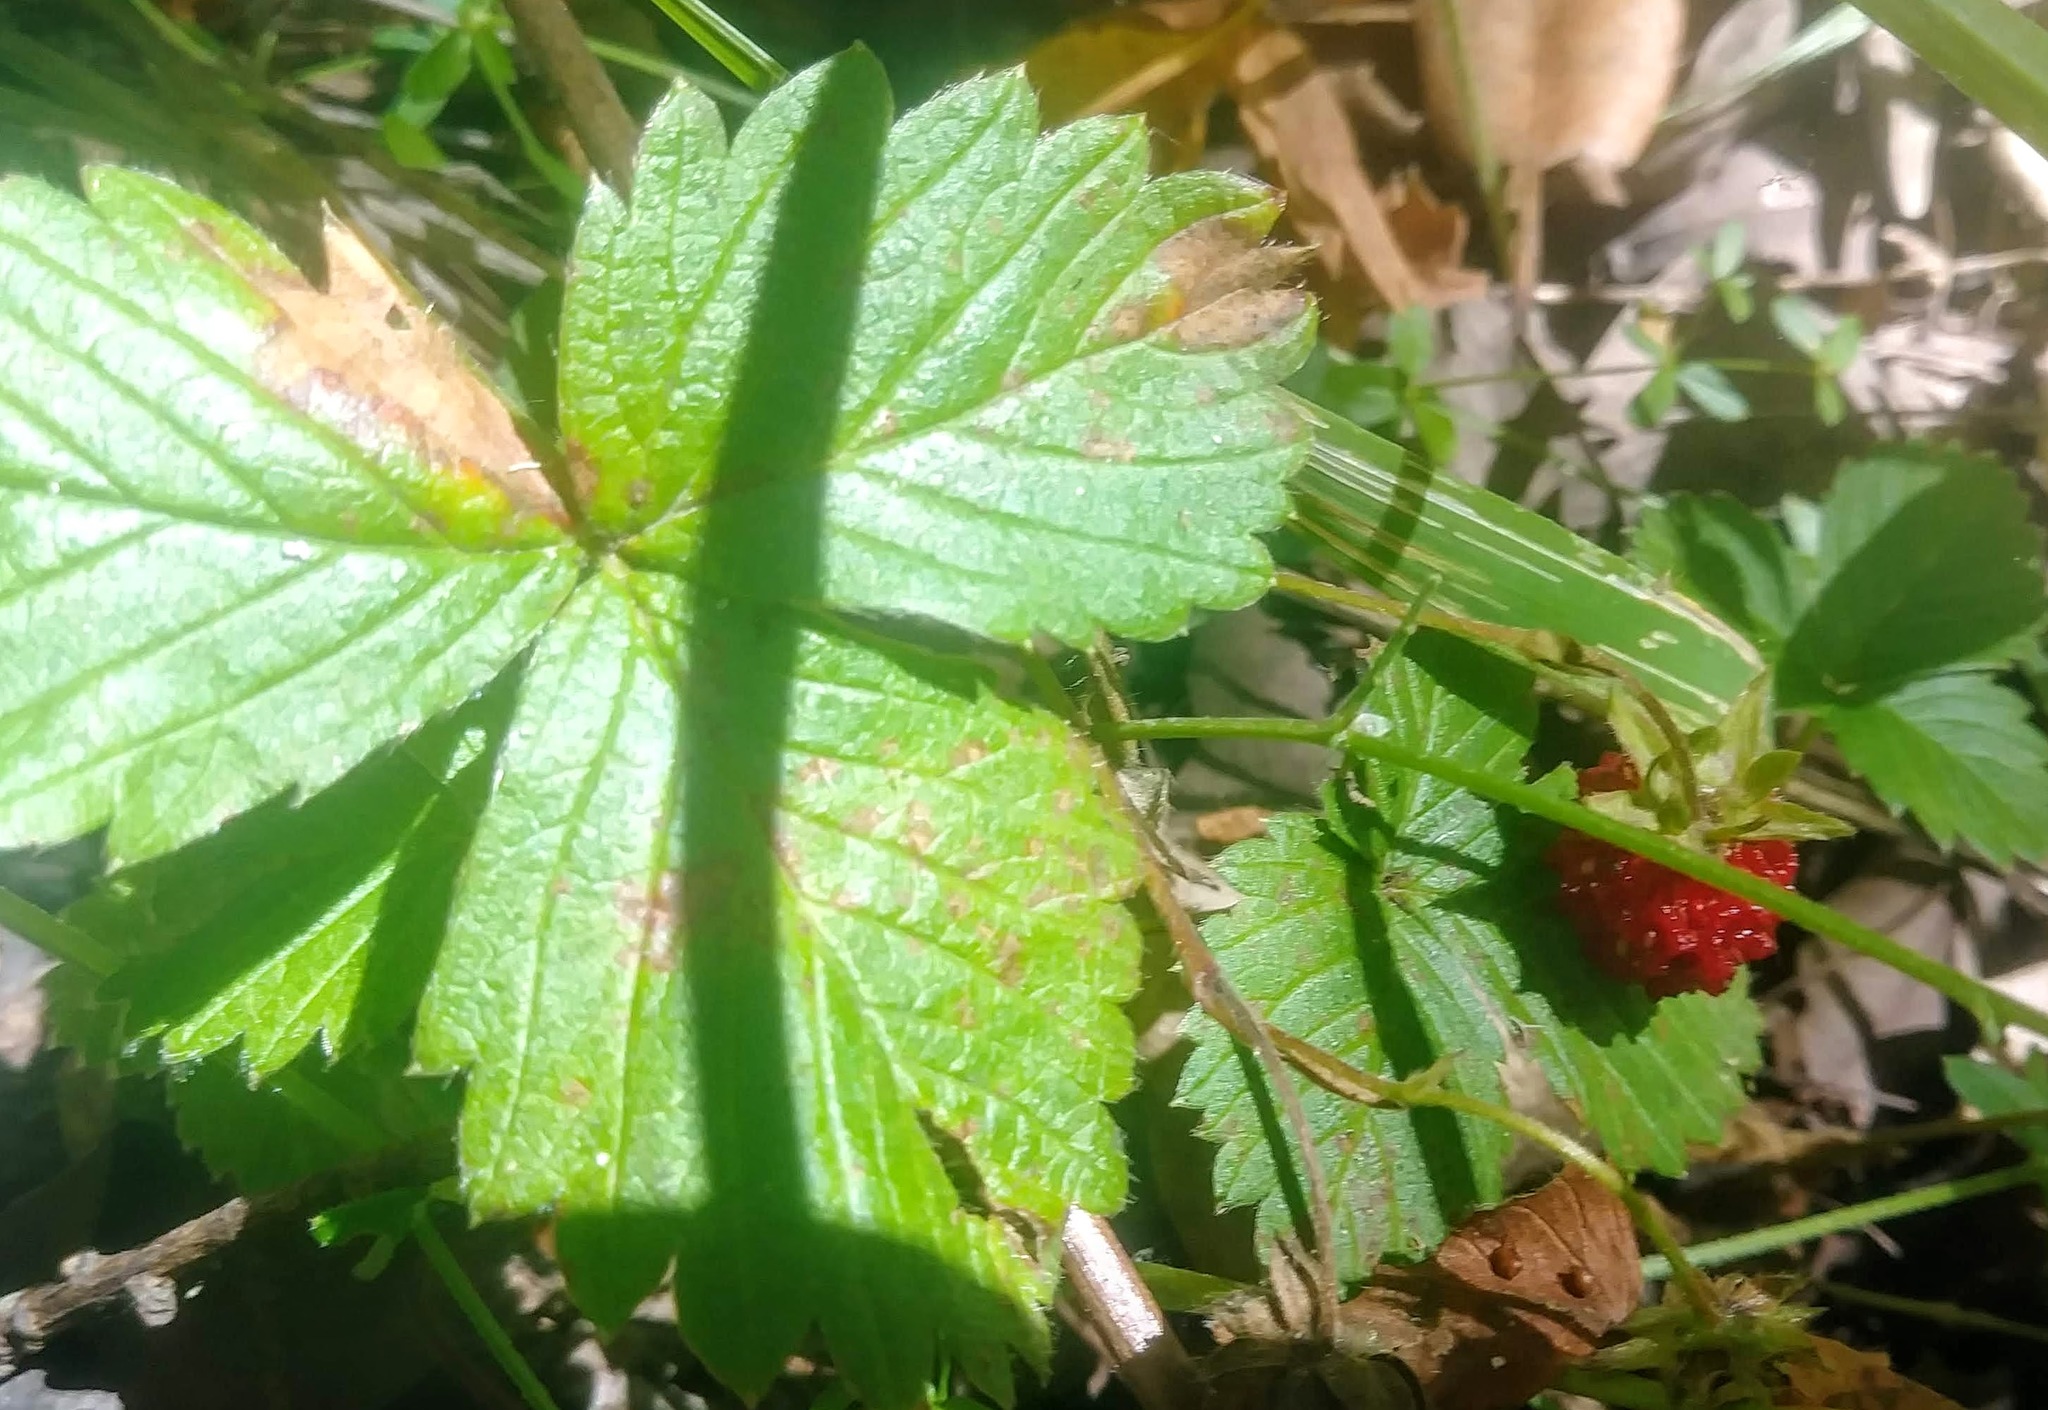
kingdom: Plantae
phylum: Tracheophyta
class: Magnoliopsida
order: Rosales
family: Rosaceae
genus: Fragaria
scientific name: Fragaria vesca
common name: Wild strawberry
